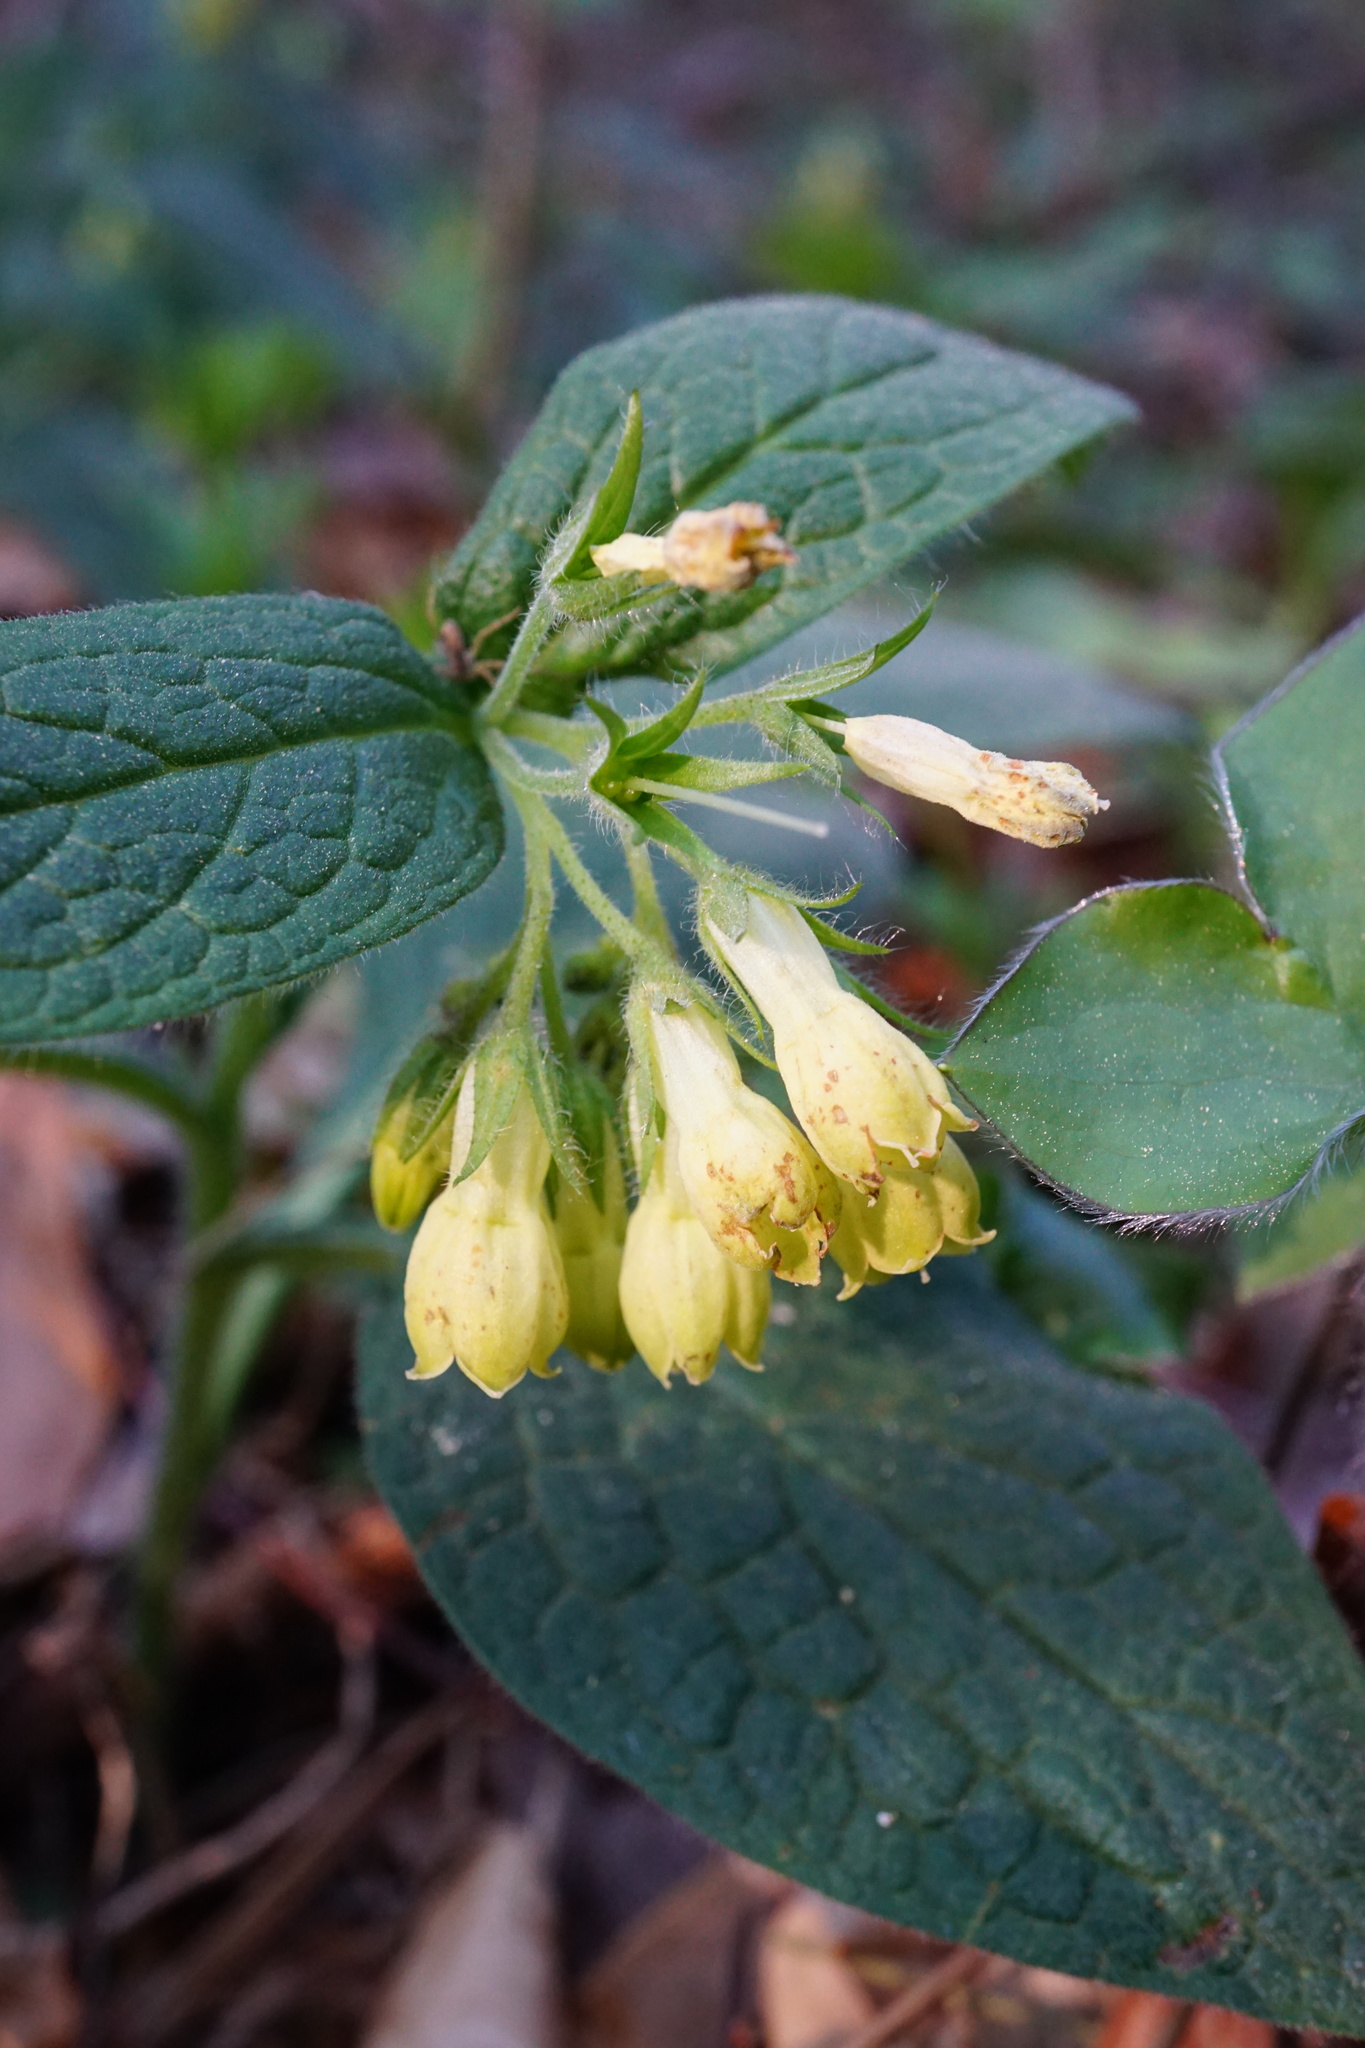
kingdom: Plantae
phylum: Tracheophyta
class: Magnoliopsida
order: Boraginales
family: Boraginaceae
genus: Symphytum
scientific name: Symphytum tuberosum
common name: Tuberous comfrey
